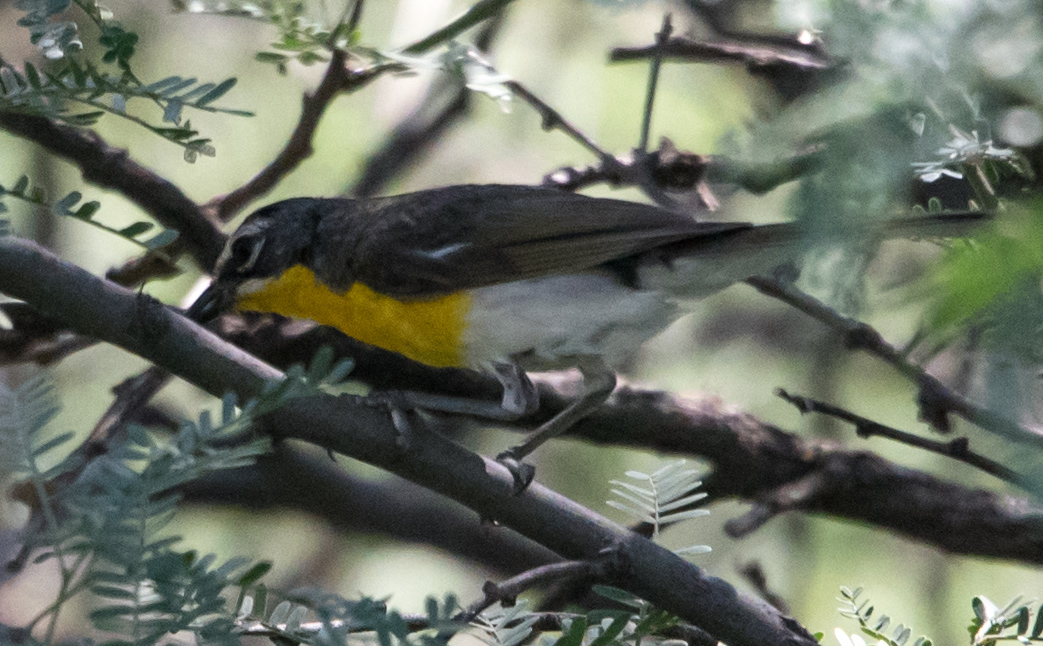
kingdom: Animalia
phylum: Chordata
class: Aves
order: Passeriformes
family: Parulidae
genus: Icteria
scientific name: Icteria virens
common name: Yellow-breasted chat
